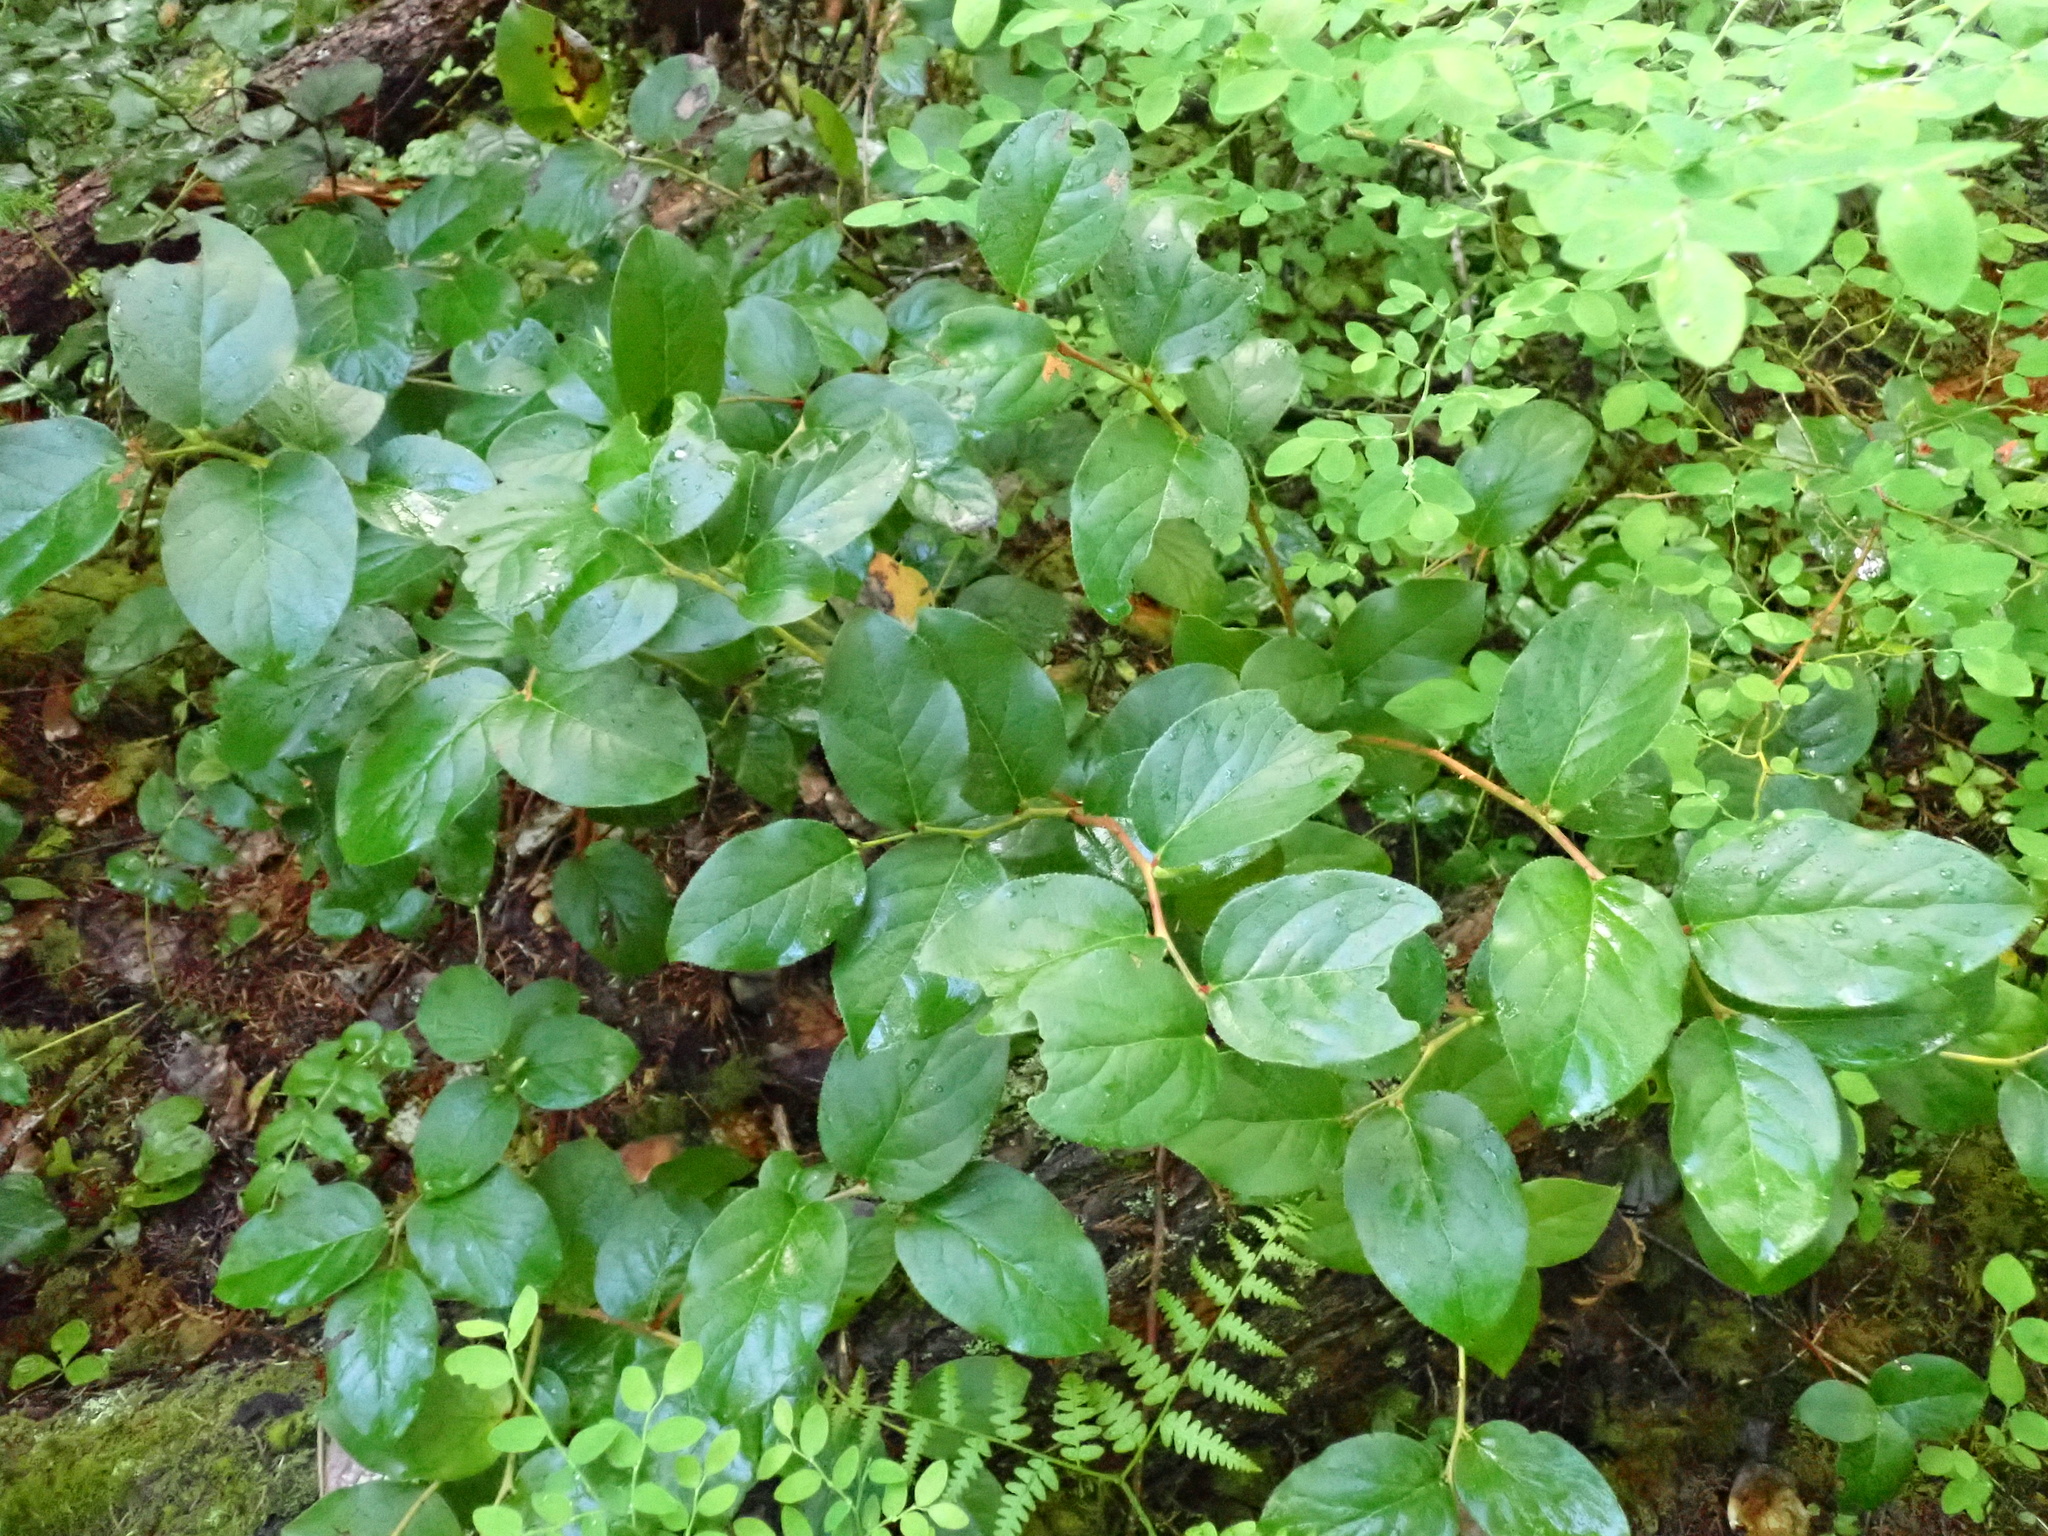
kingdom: Plantae
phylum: Tracheophyta
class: Magnoliopsida
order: Ericales
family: Ericaceae
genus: Gaultheria
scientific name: Gaultheria shallon
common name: Shallon
